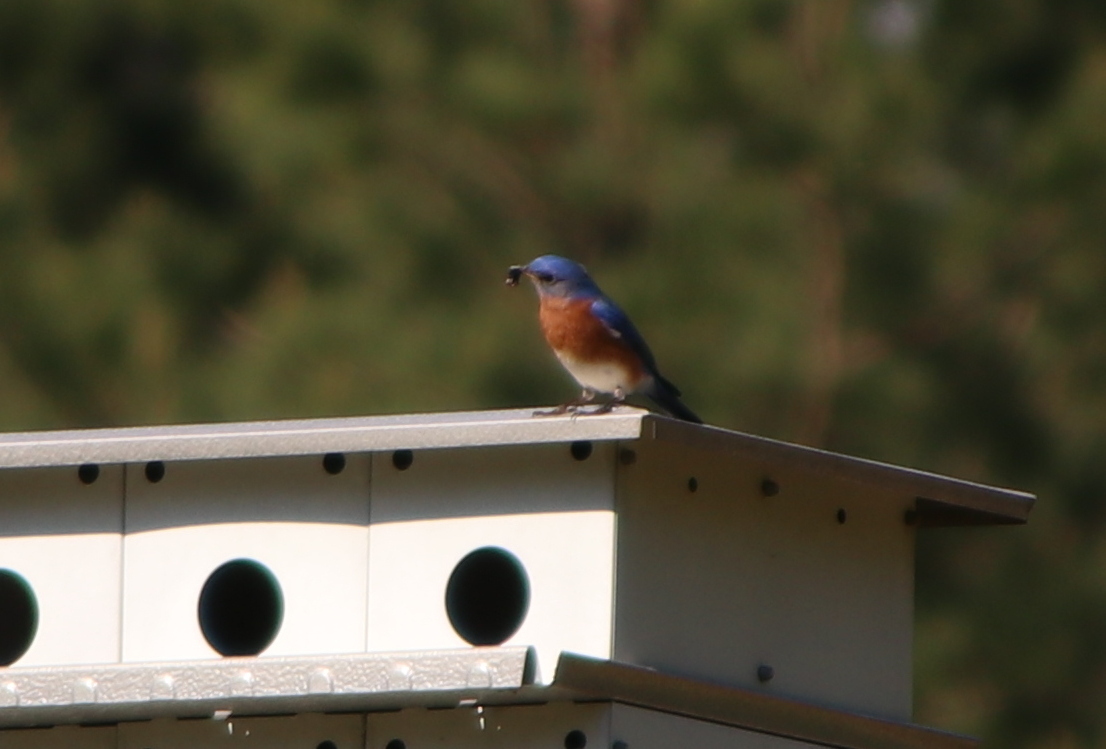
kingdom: Animalia
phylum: Chordata
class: Aves
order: Passeriformes
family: Turdidae
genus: Sialia
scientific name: Sialia sialis
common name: Eastern bluebird
